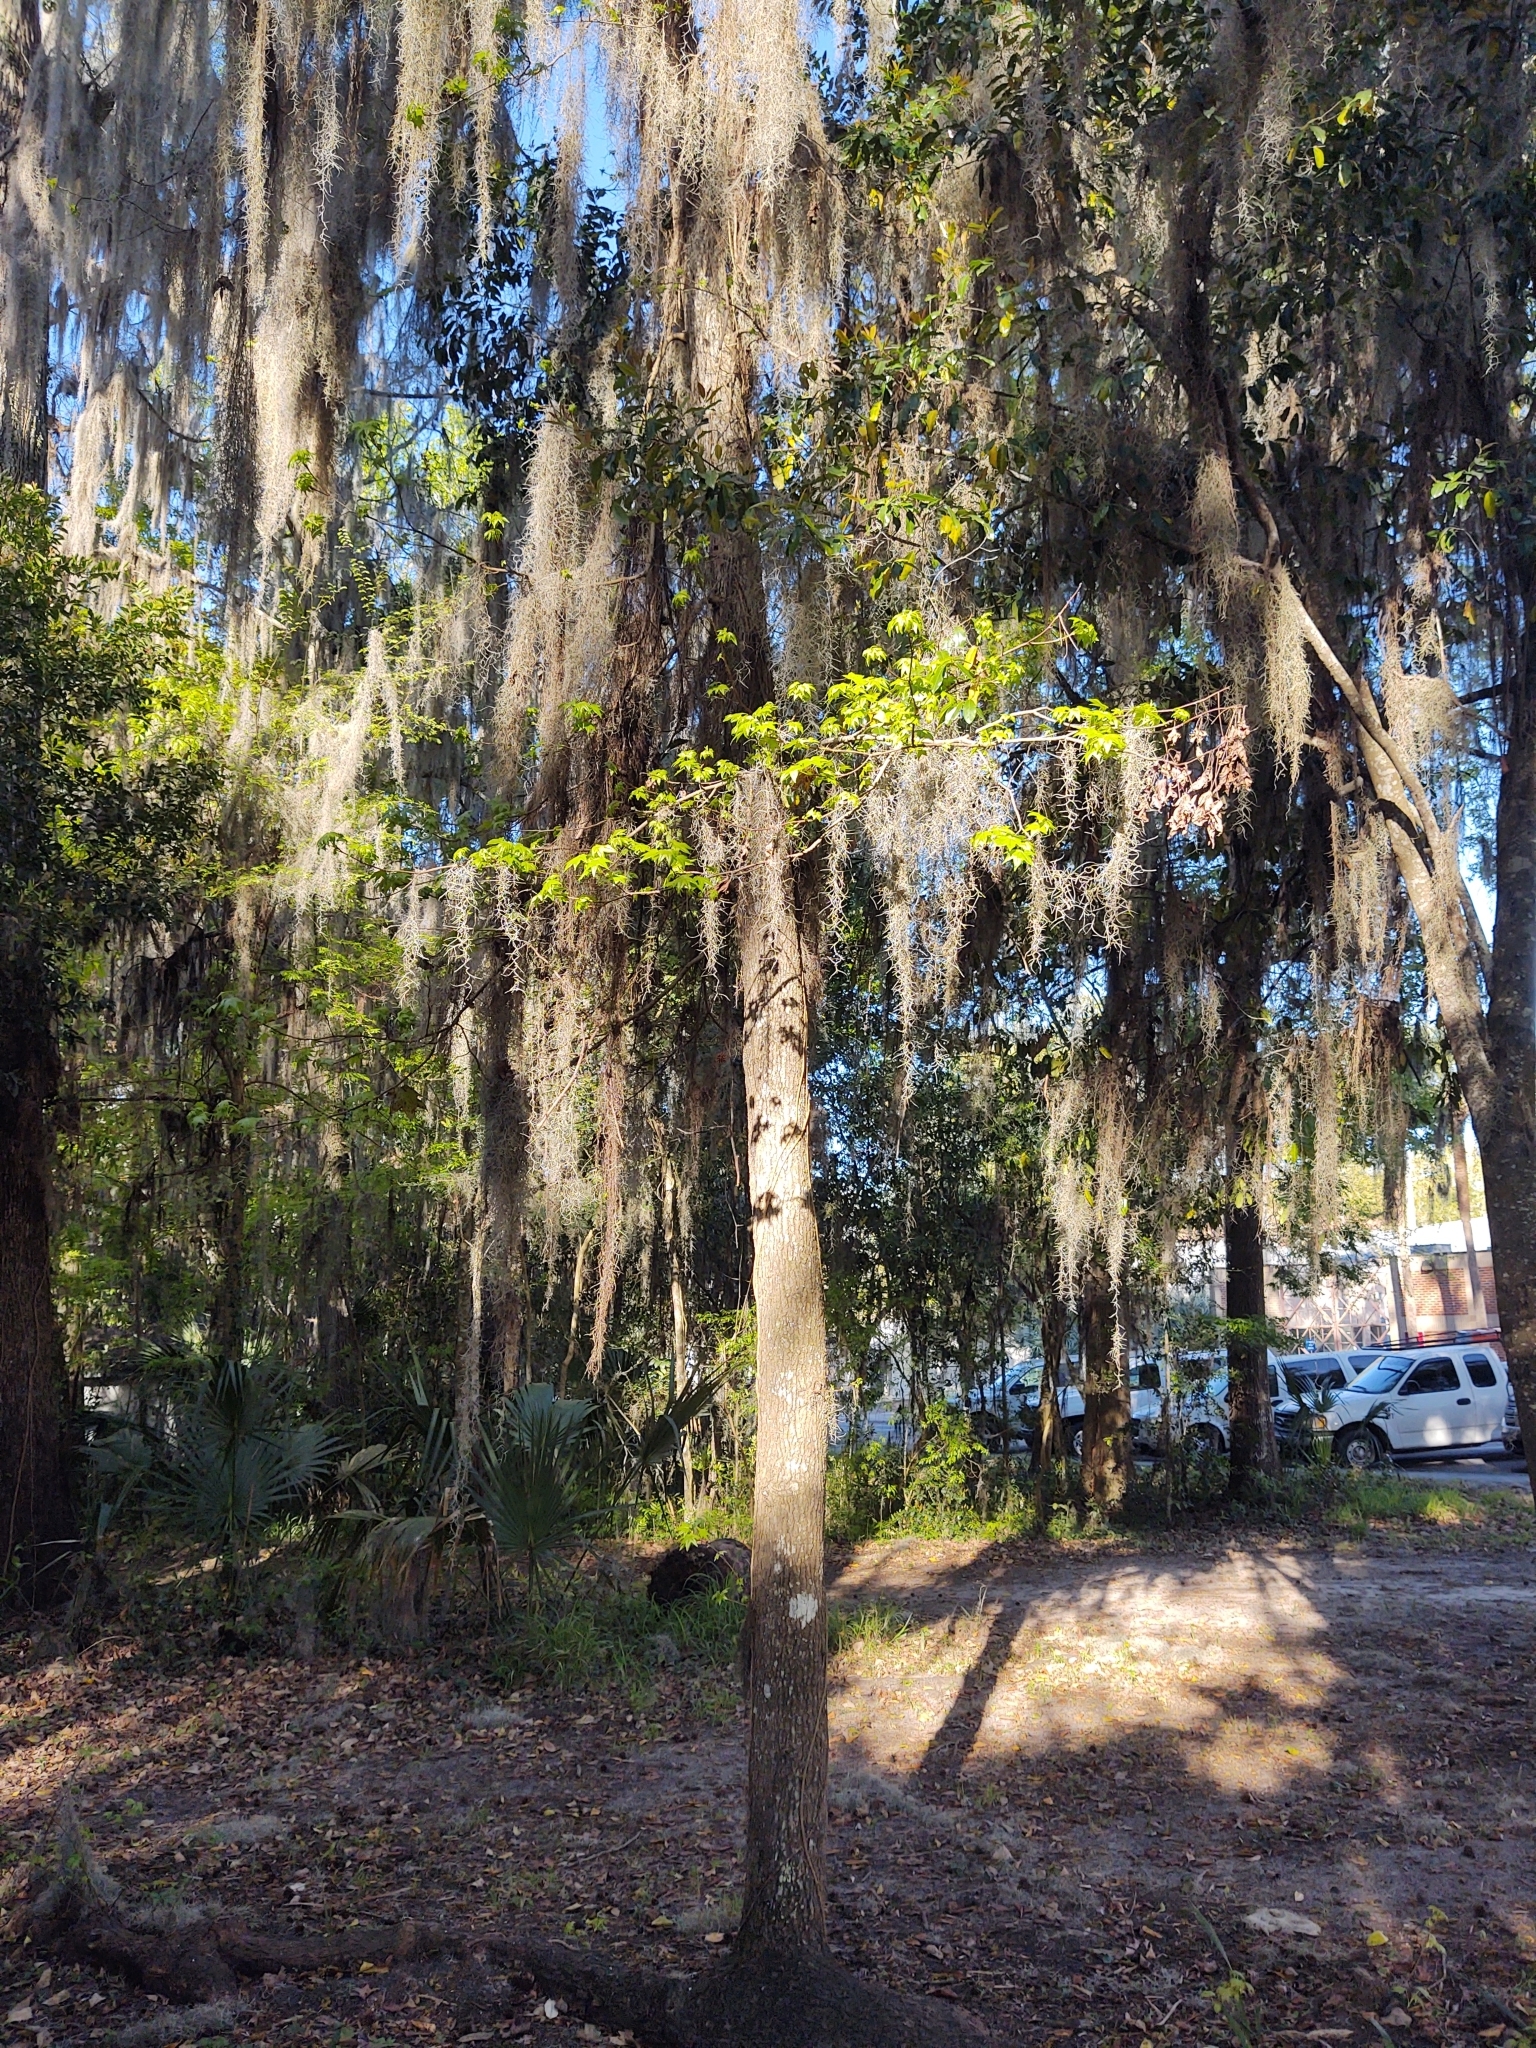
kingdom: Plantae
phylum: Tracheophyta
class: Magnoliopsida
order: Saxifragales
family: Altingiaceae
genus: Liquidambar
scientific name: Liquidambar styraciflua
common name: Sweet gum
